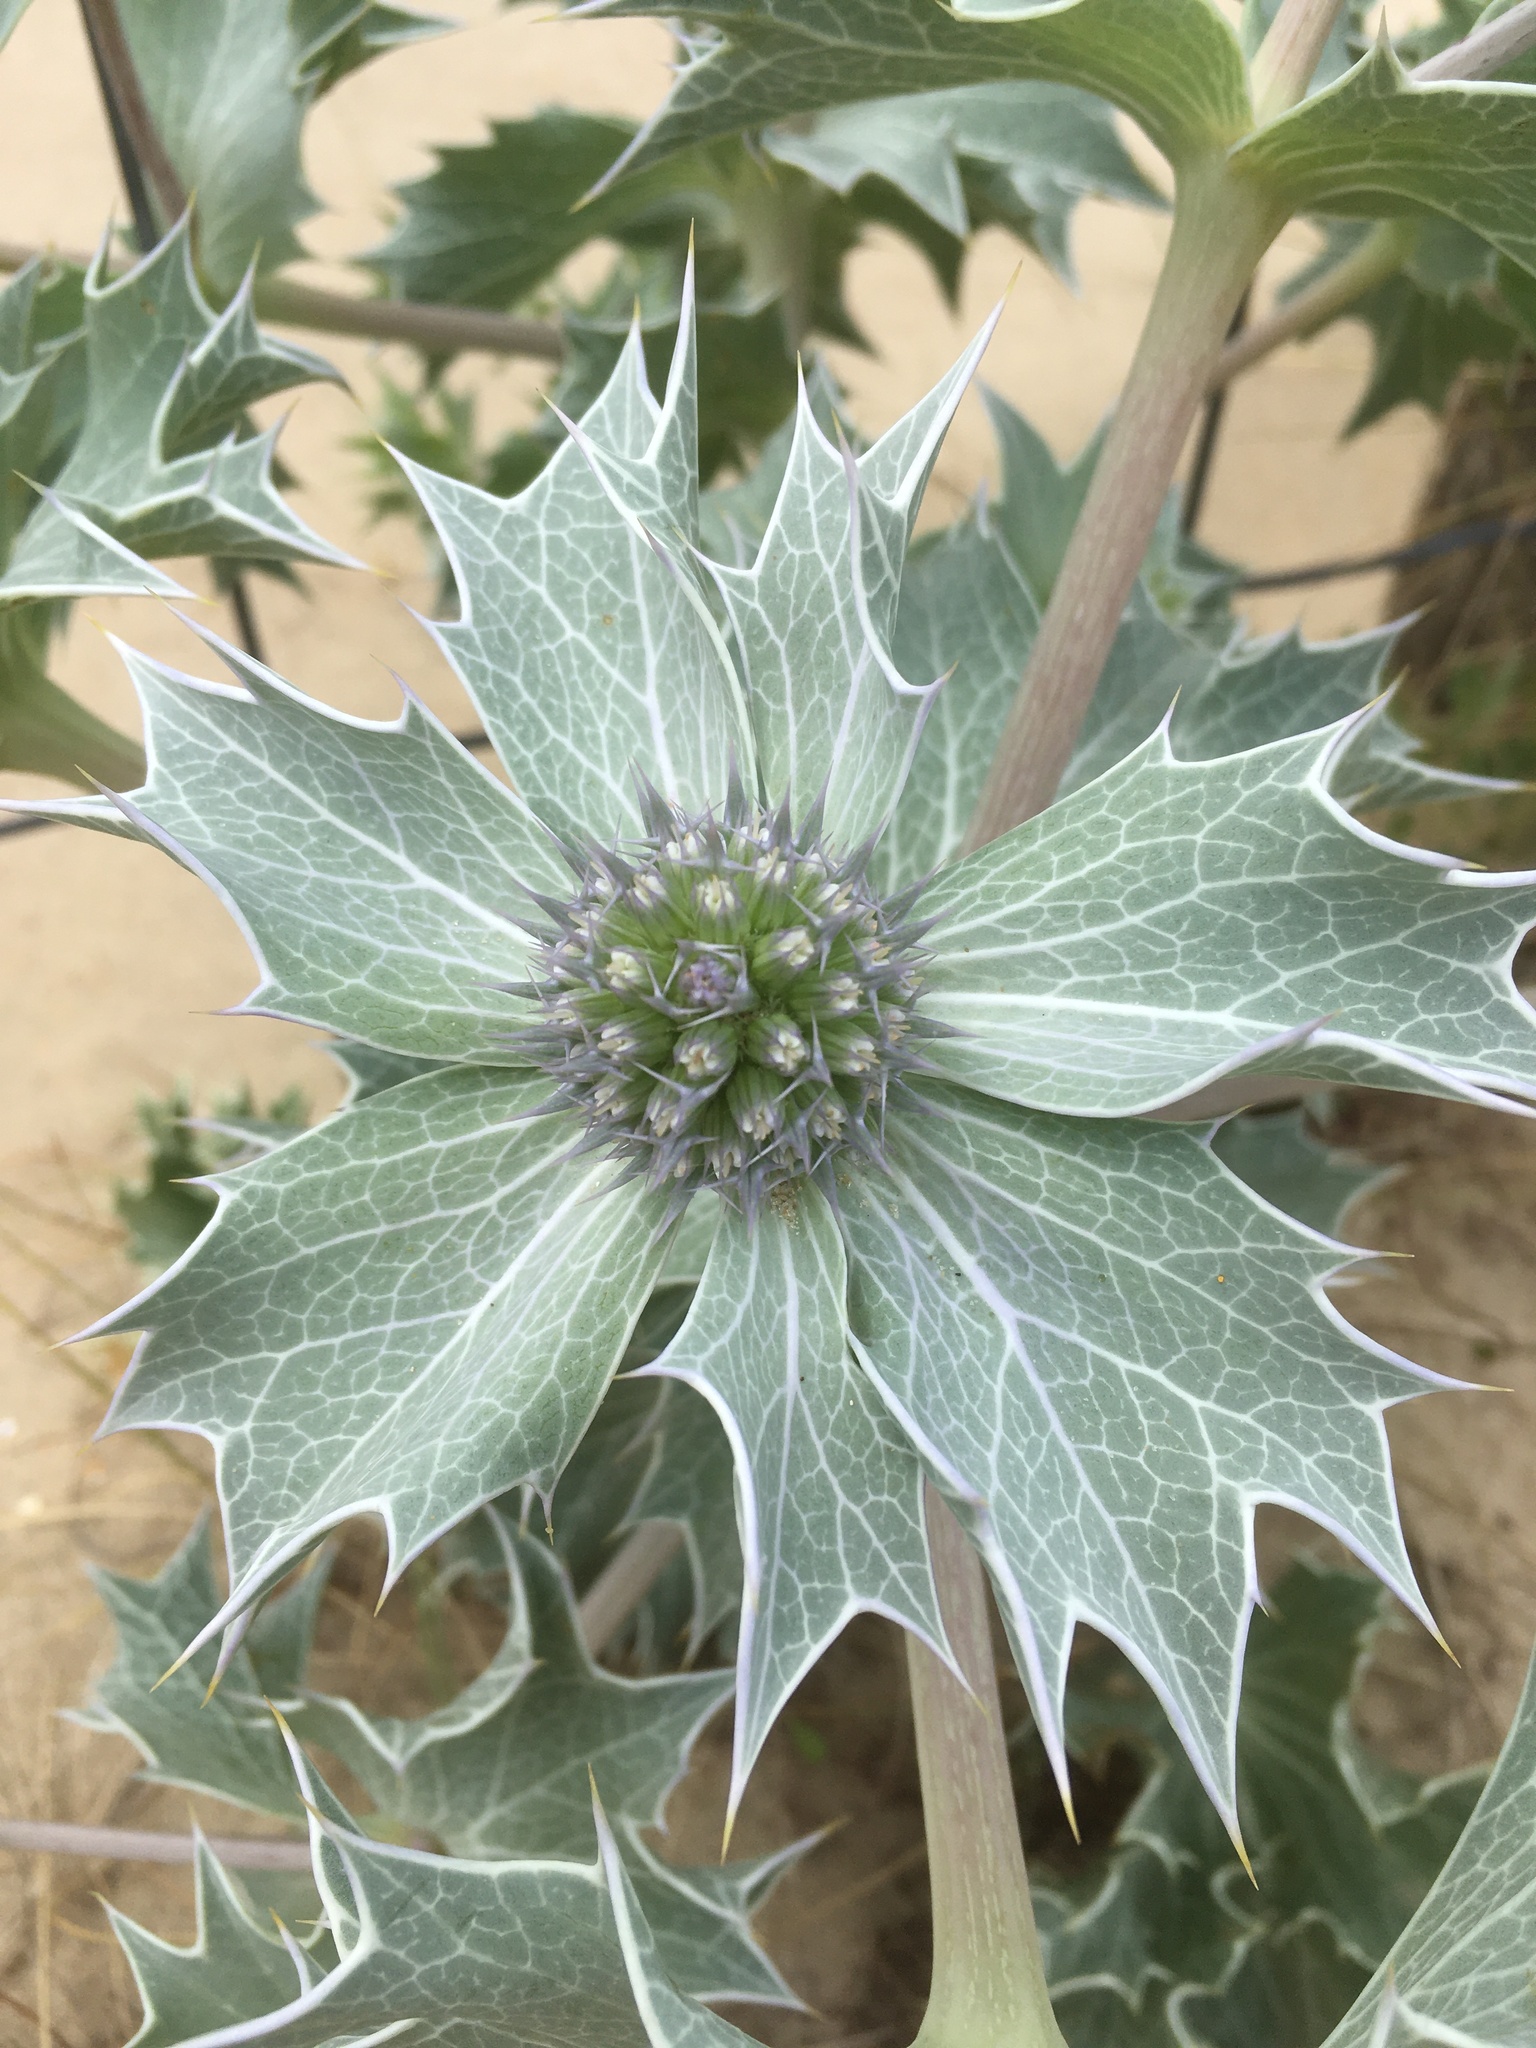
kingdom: Plantae
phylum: Tracheophyta
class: Magnoliopsida
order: Apiales
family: Apiaceae
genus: Eryngium
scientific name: Eryngium maritimum
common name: Sea-holly
